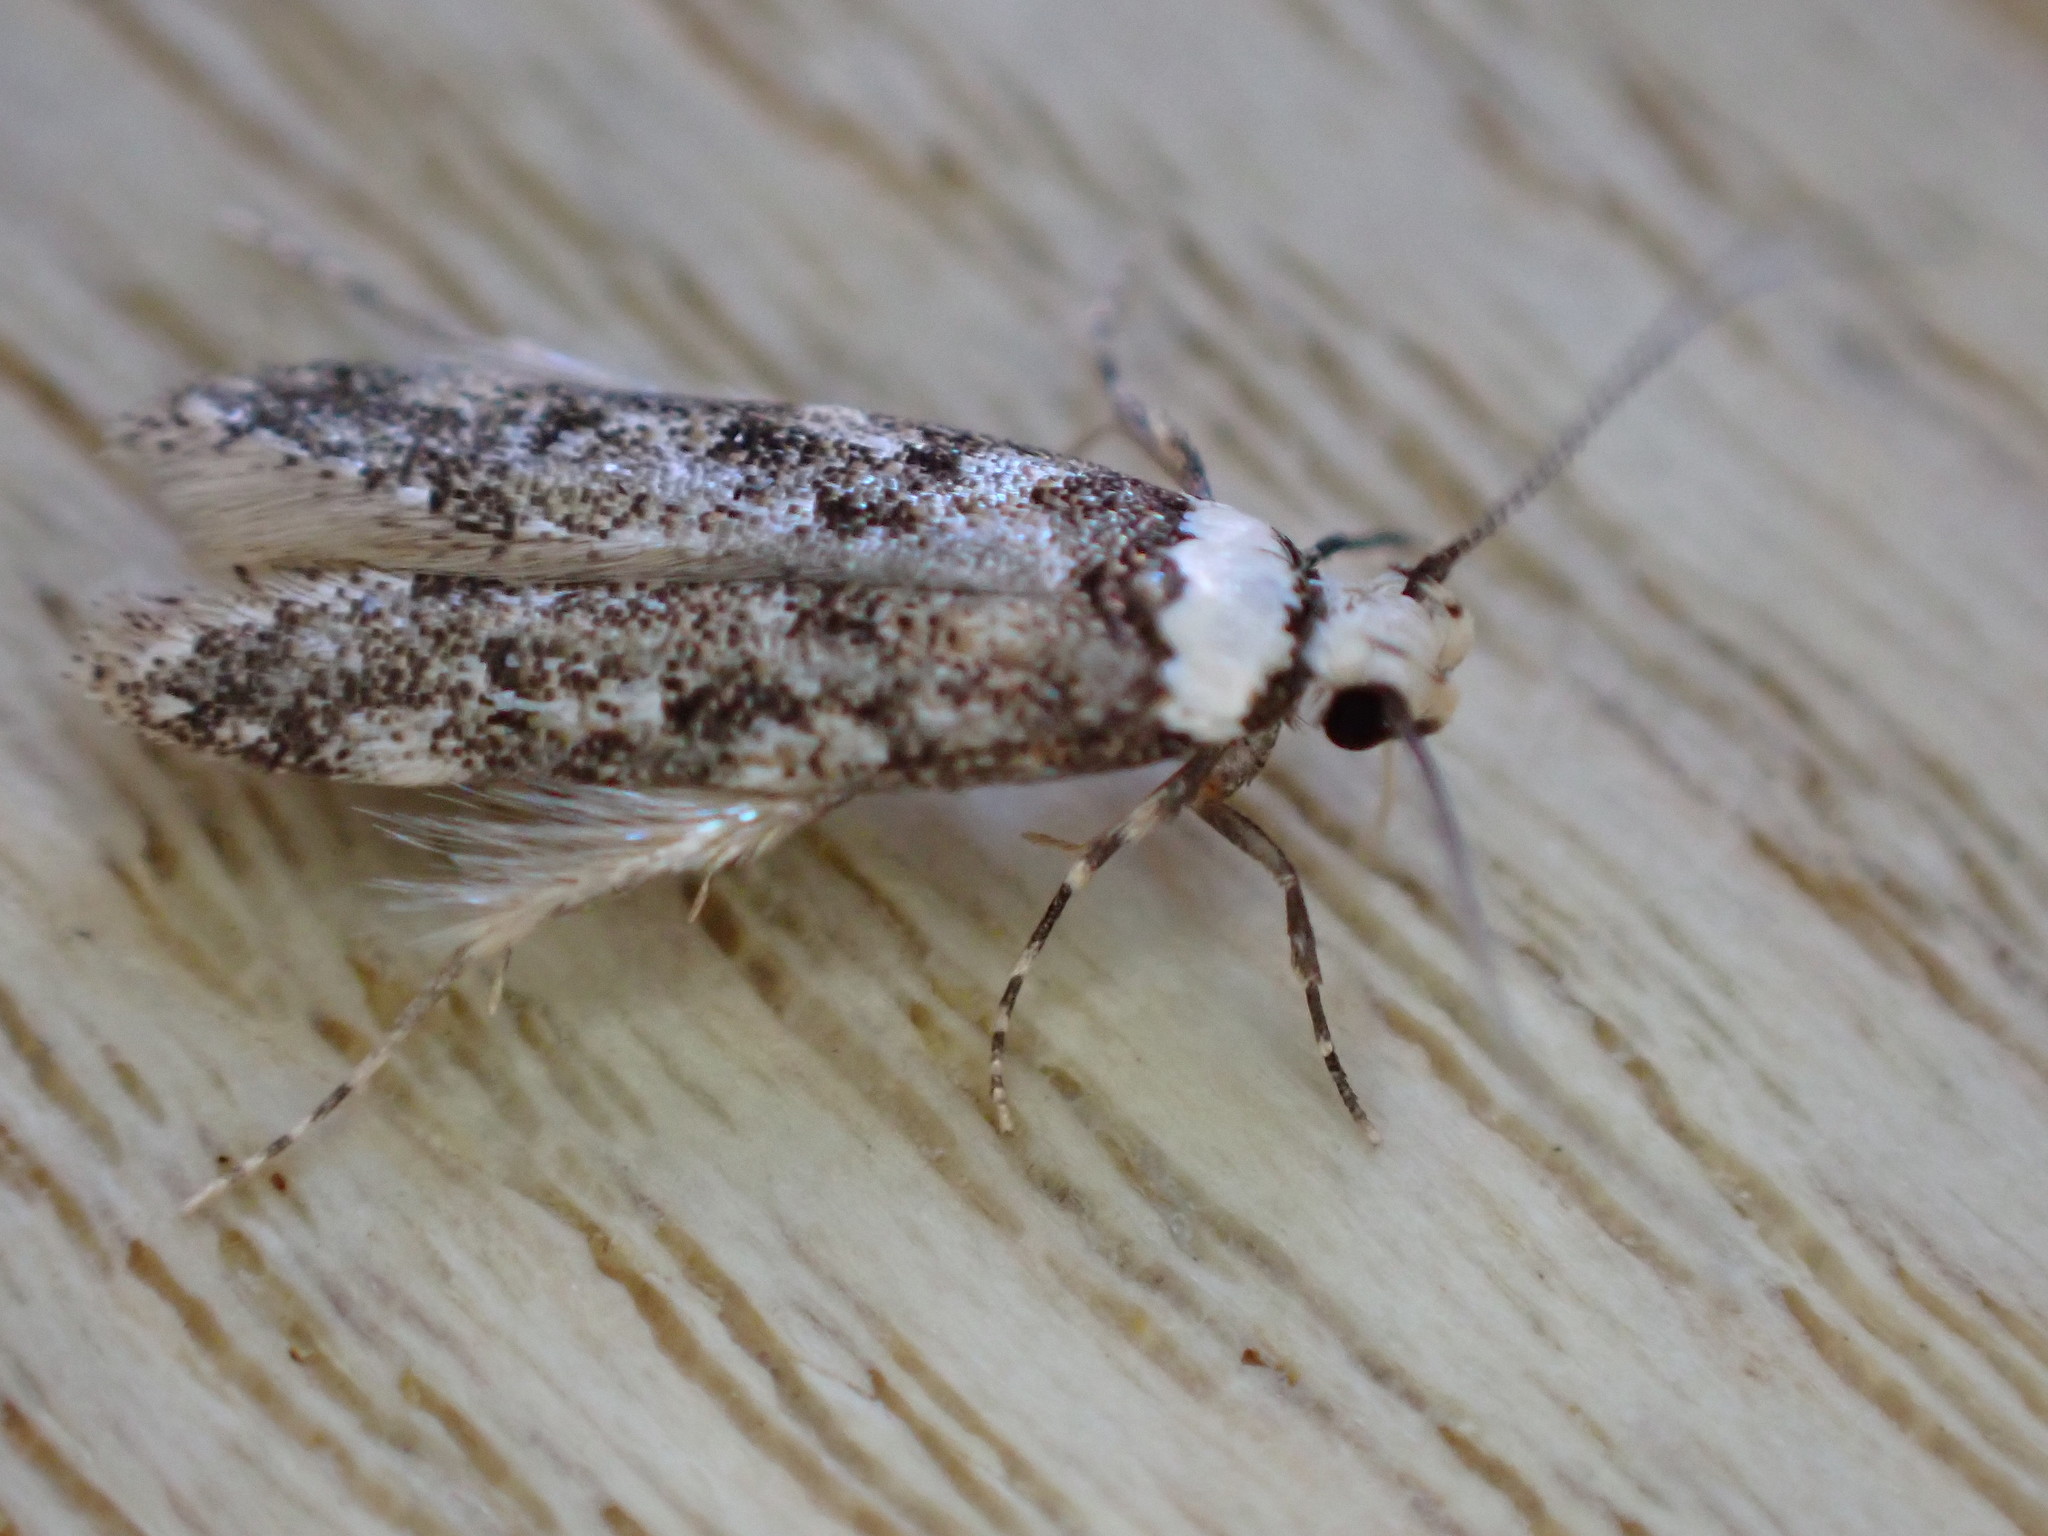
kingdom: Animalia
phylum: Arthropoda
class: Insecta
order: Lepidoptera
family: Oecophoridae
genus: Endrosis
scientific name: Endrosis sarcitrella
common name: White-shouldered house moth
